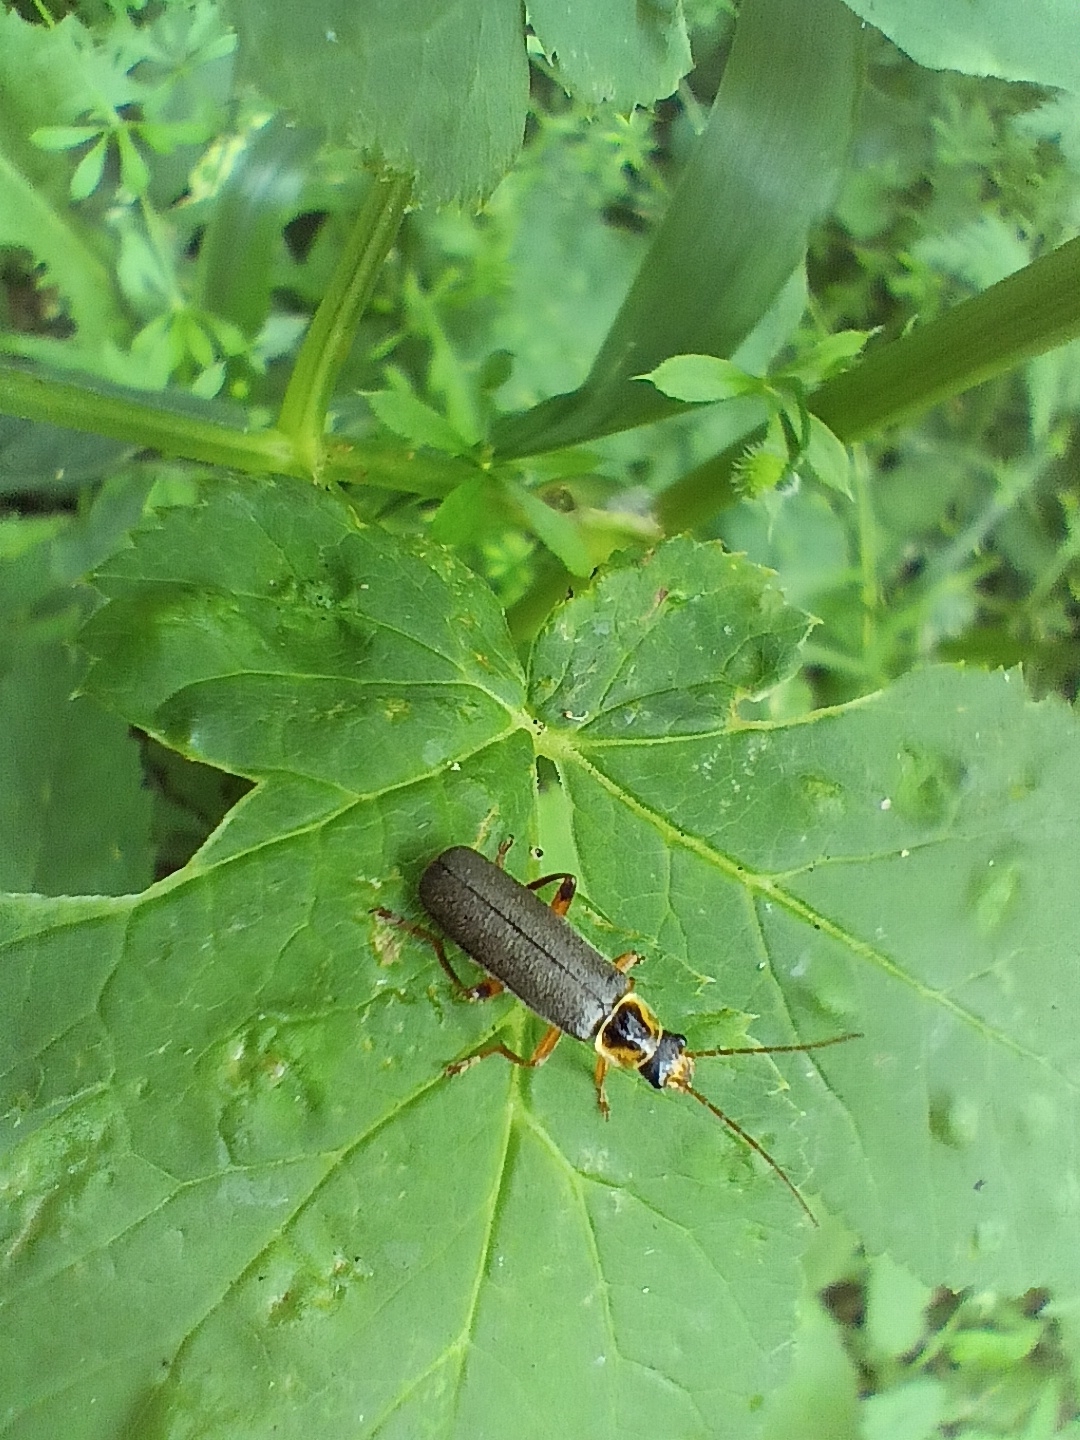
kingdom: Animalia
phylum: Arthropoda
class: Insecta
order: Coleoptera
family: Cantharidae
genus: Cantharis
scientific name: Cantharis nigricans
